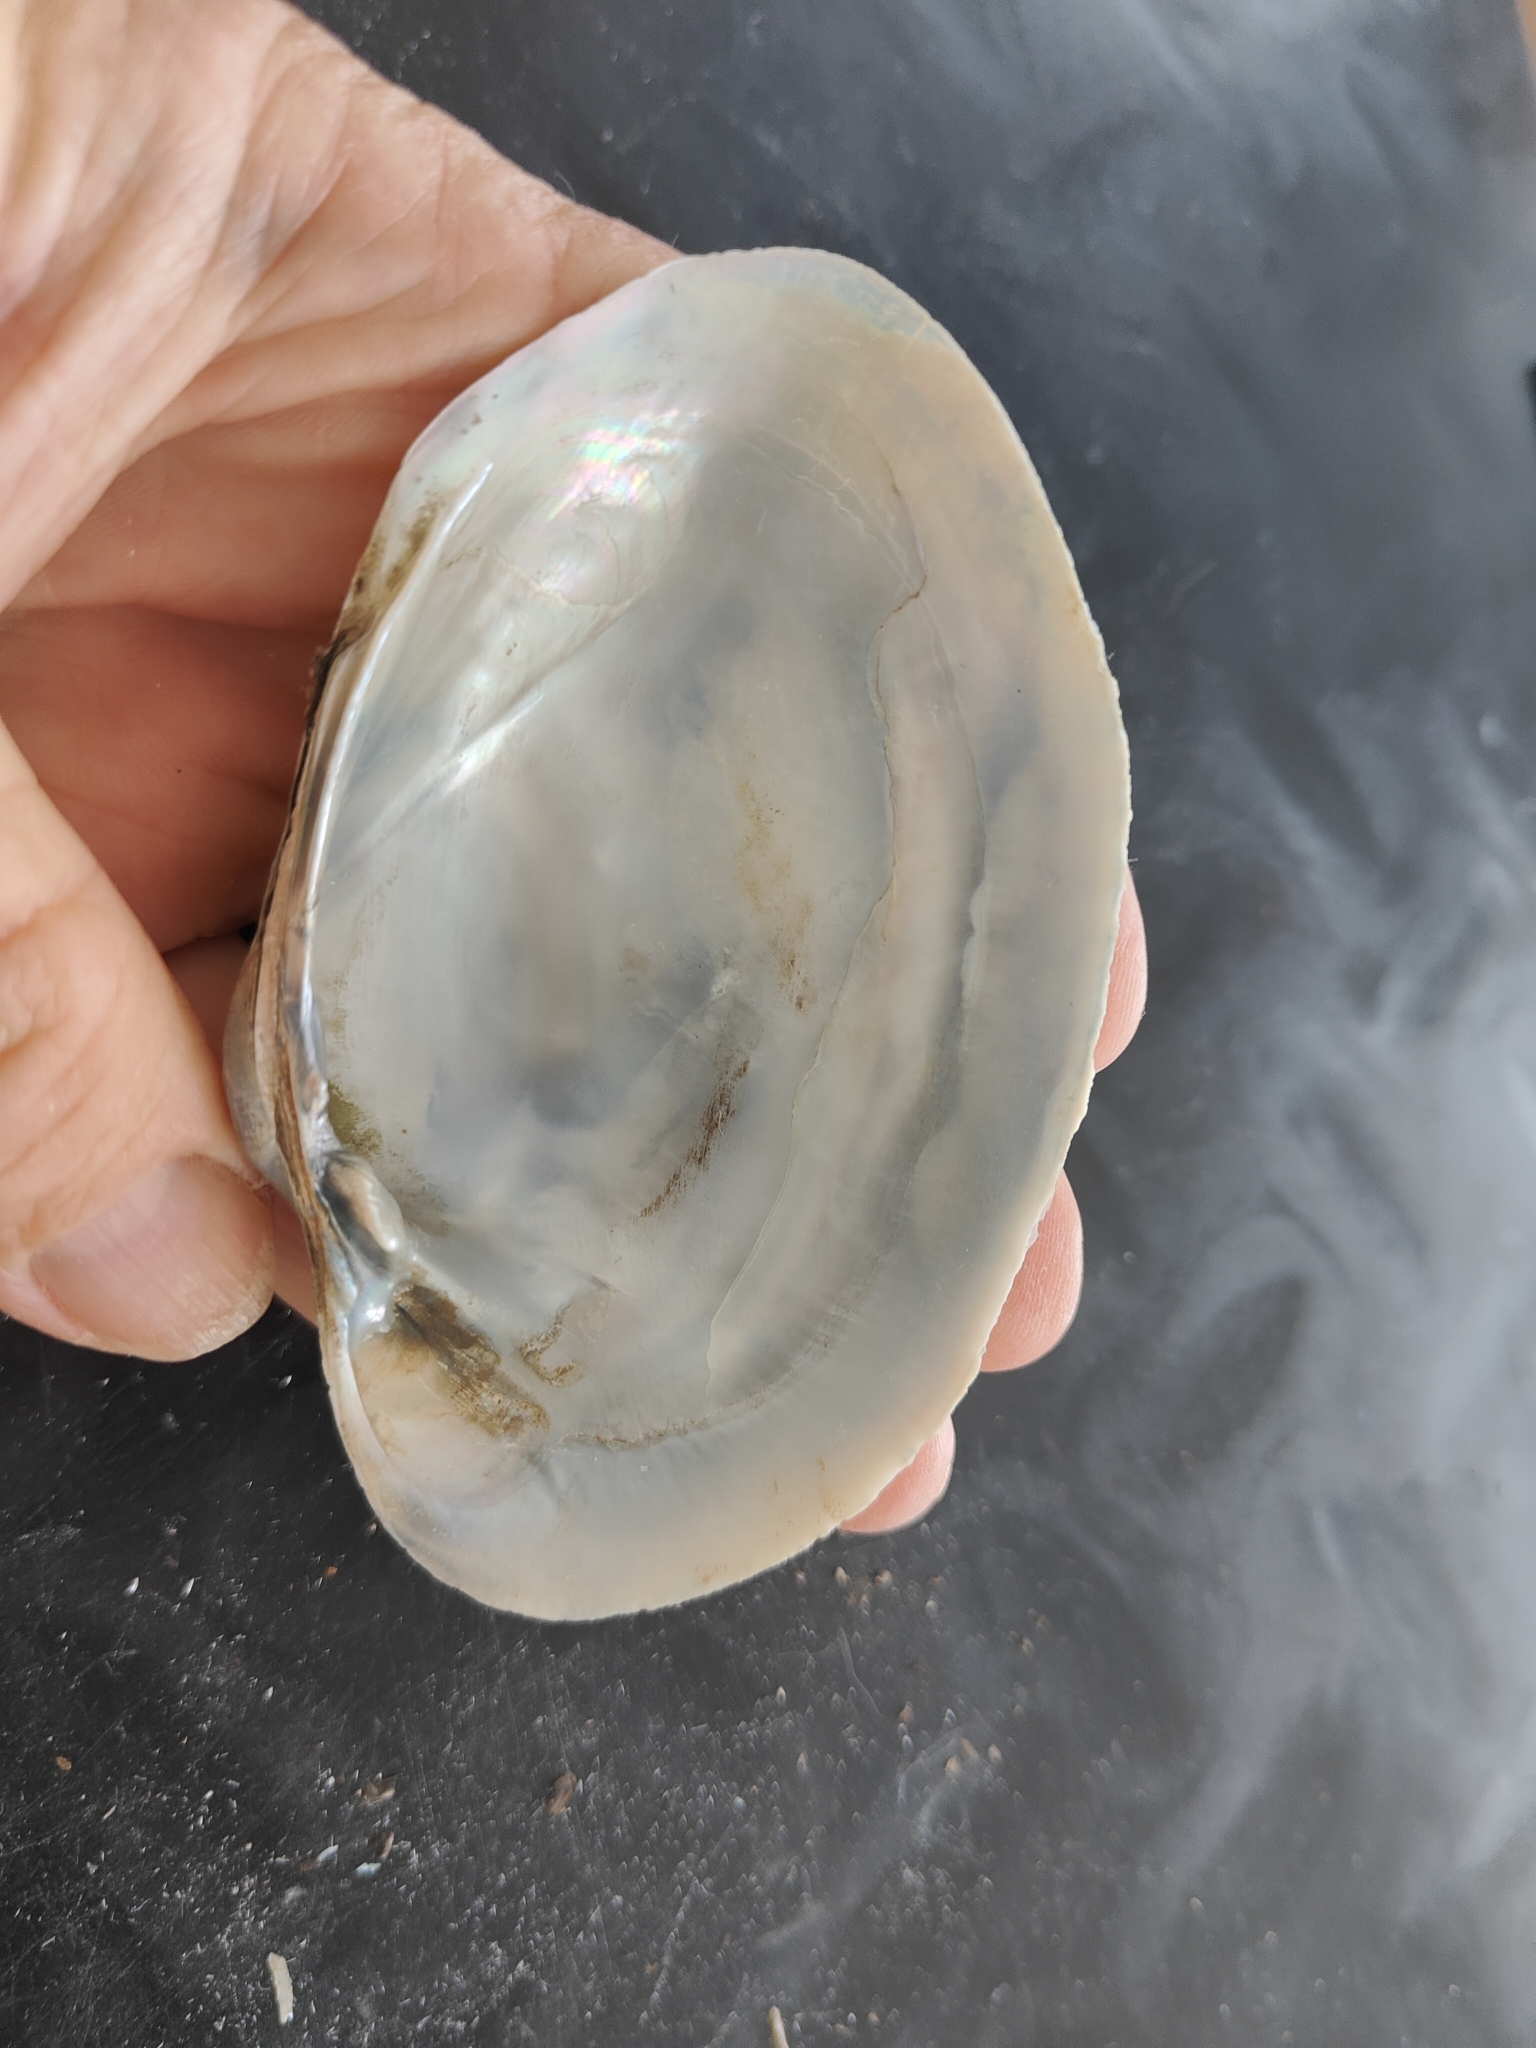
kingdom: Animalia
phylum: Mollusca
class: Bivalvia
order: Unionida
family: Unionidae
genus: Lampsilis
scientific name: Lampsilis cardium
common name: Plain pocketbook
